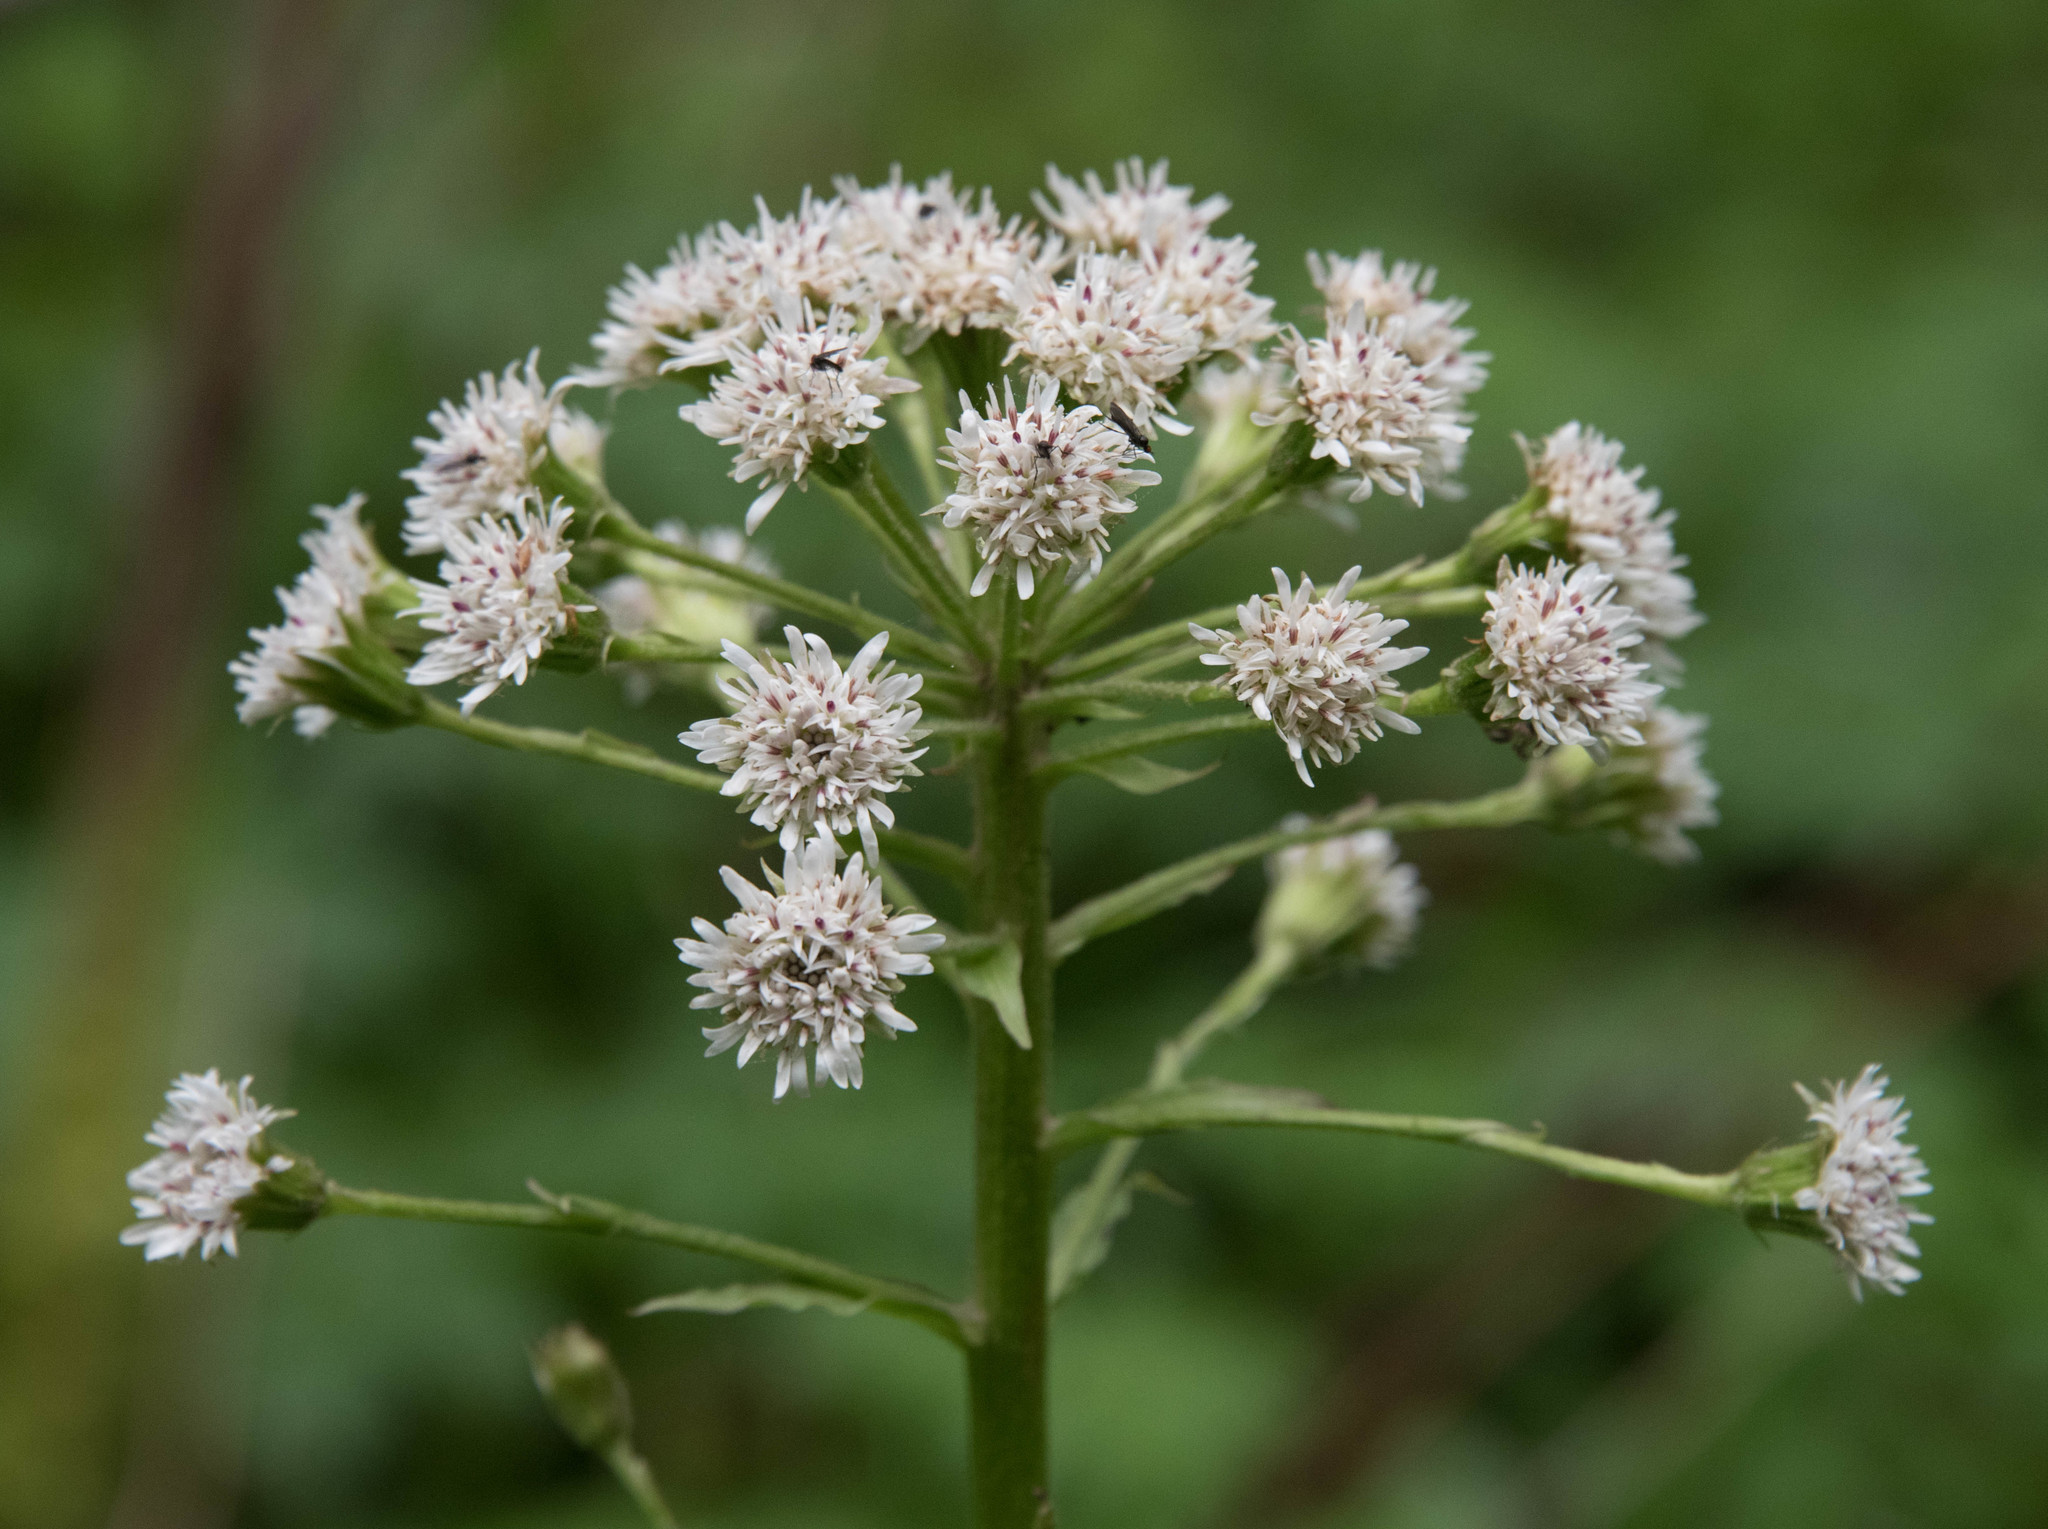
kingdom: Plantae
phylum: Tracheophyta
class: Magnoliopsida
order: Asterales
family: Asteraceae
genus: Petasites
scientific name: Petasites frigidus
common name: Arctic butterbur
